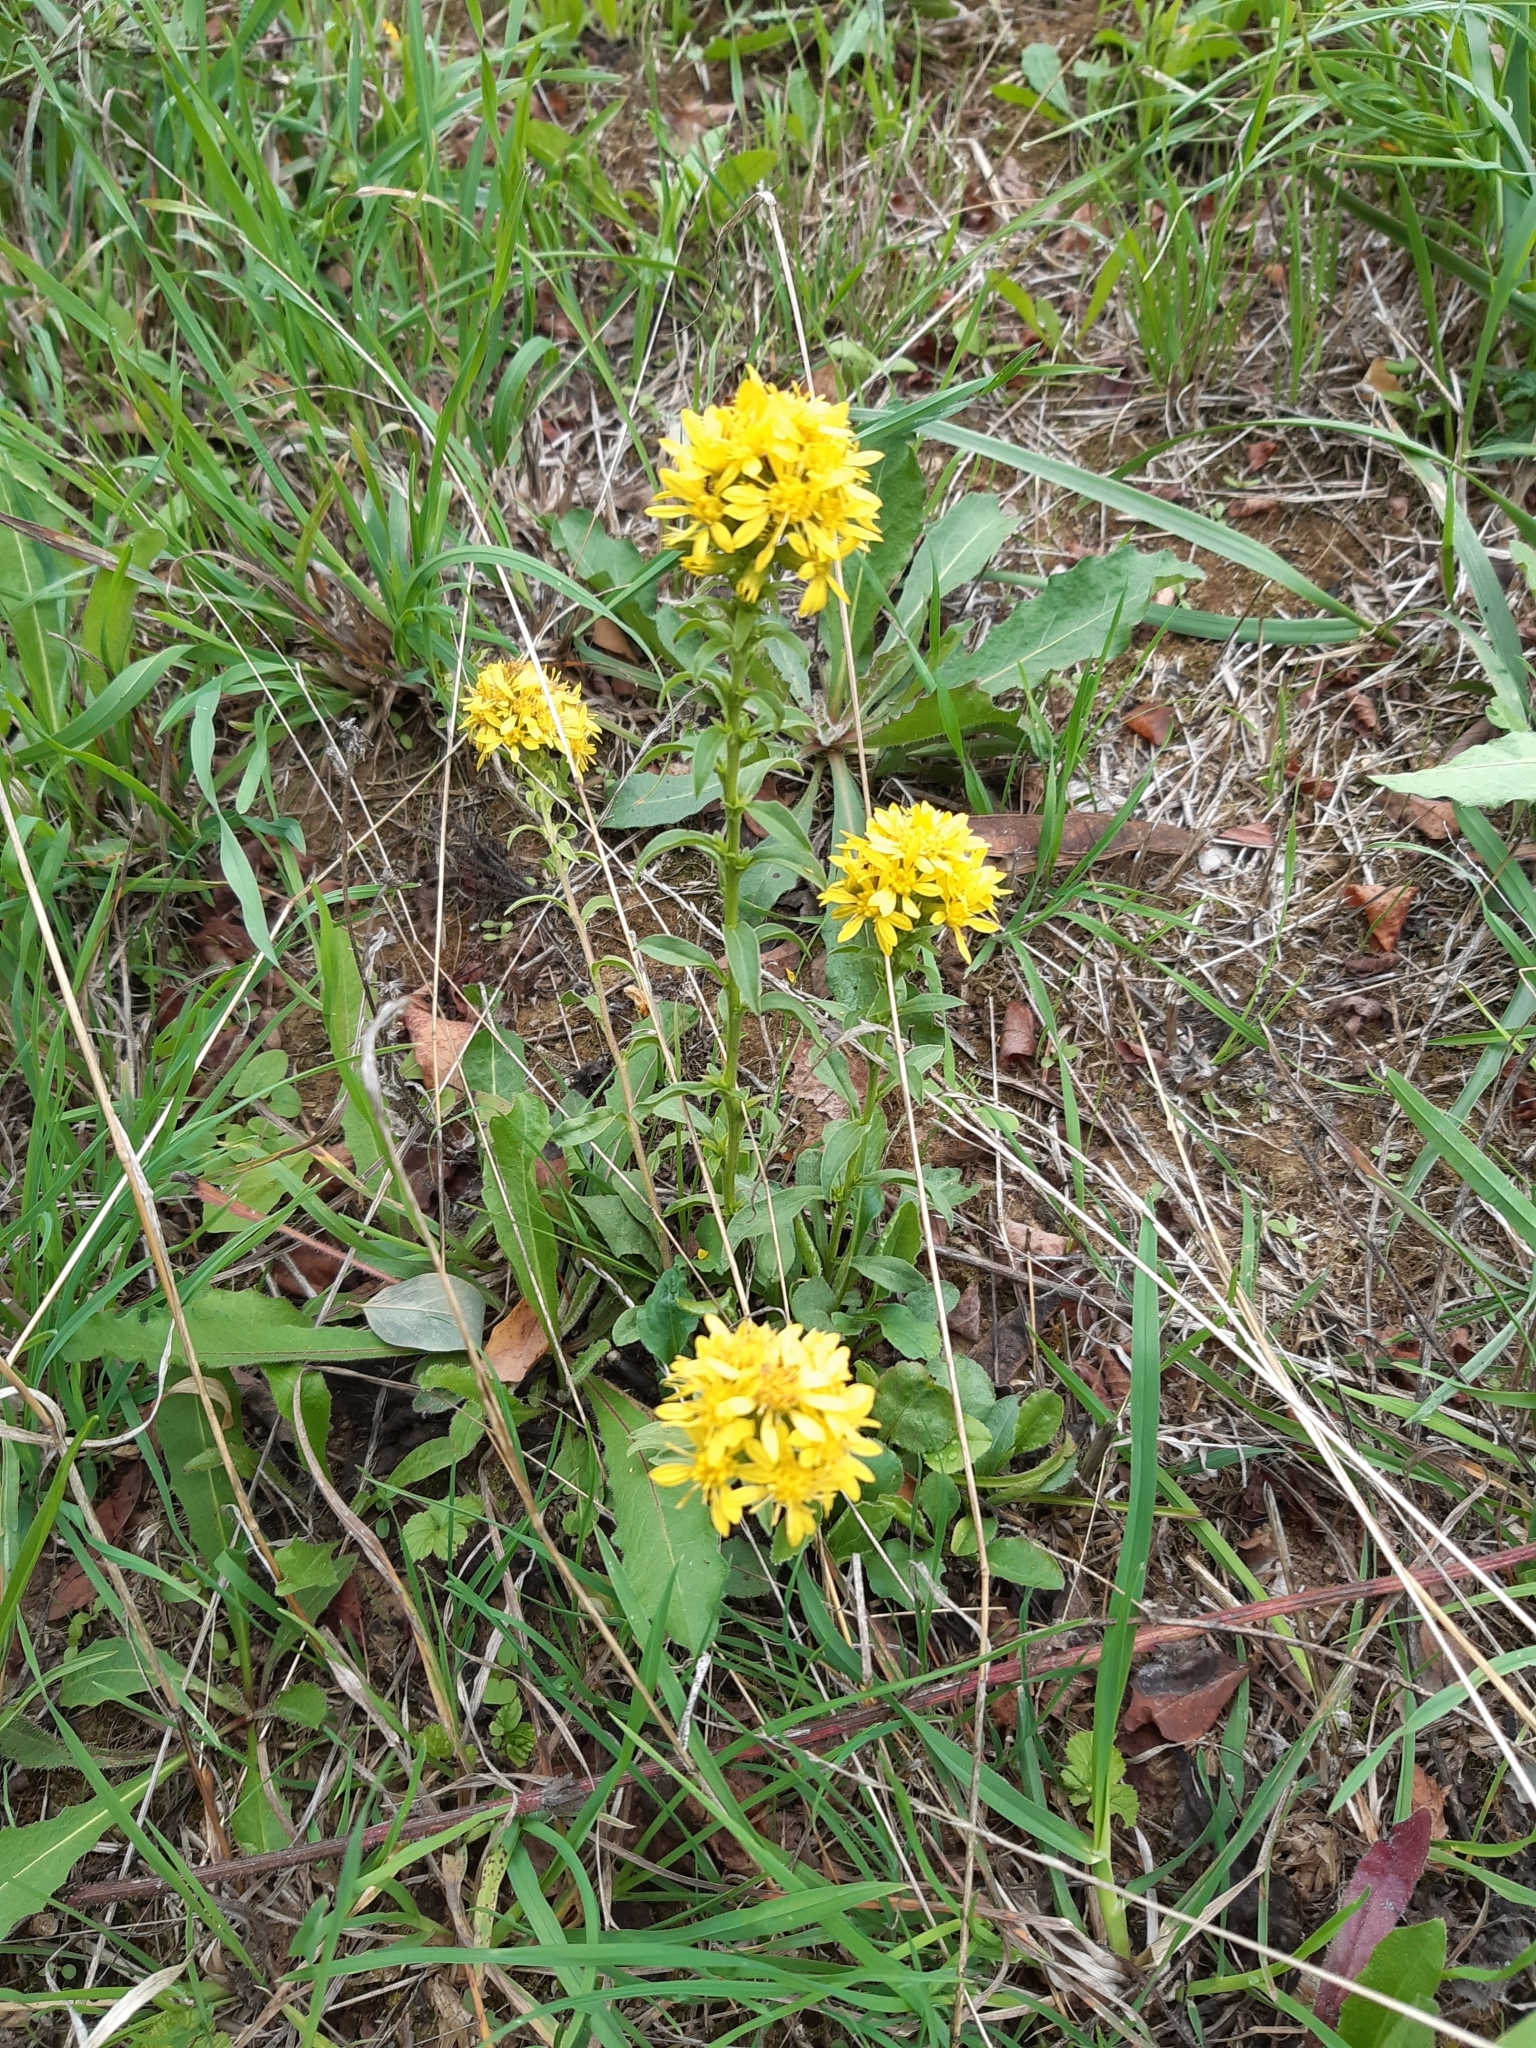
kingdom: Plantae
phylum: Tracheophyta
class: Magnoliopsida
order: Asterales
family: Asteraceae
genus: Solidago
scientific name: Solidago virgaurea
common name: Goldenrod
